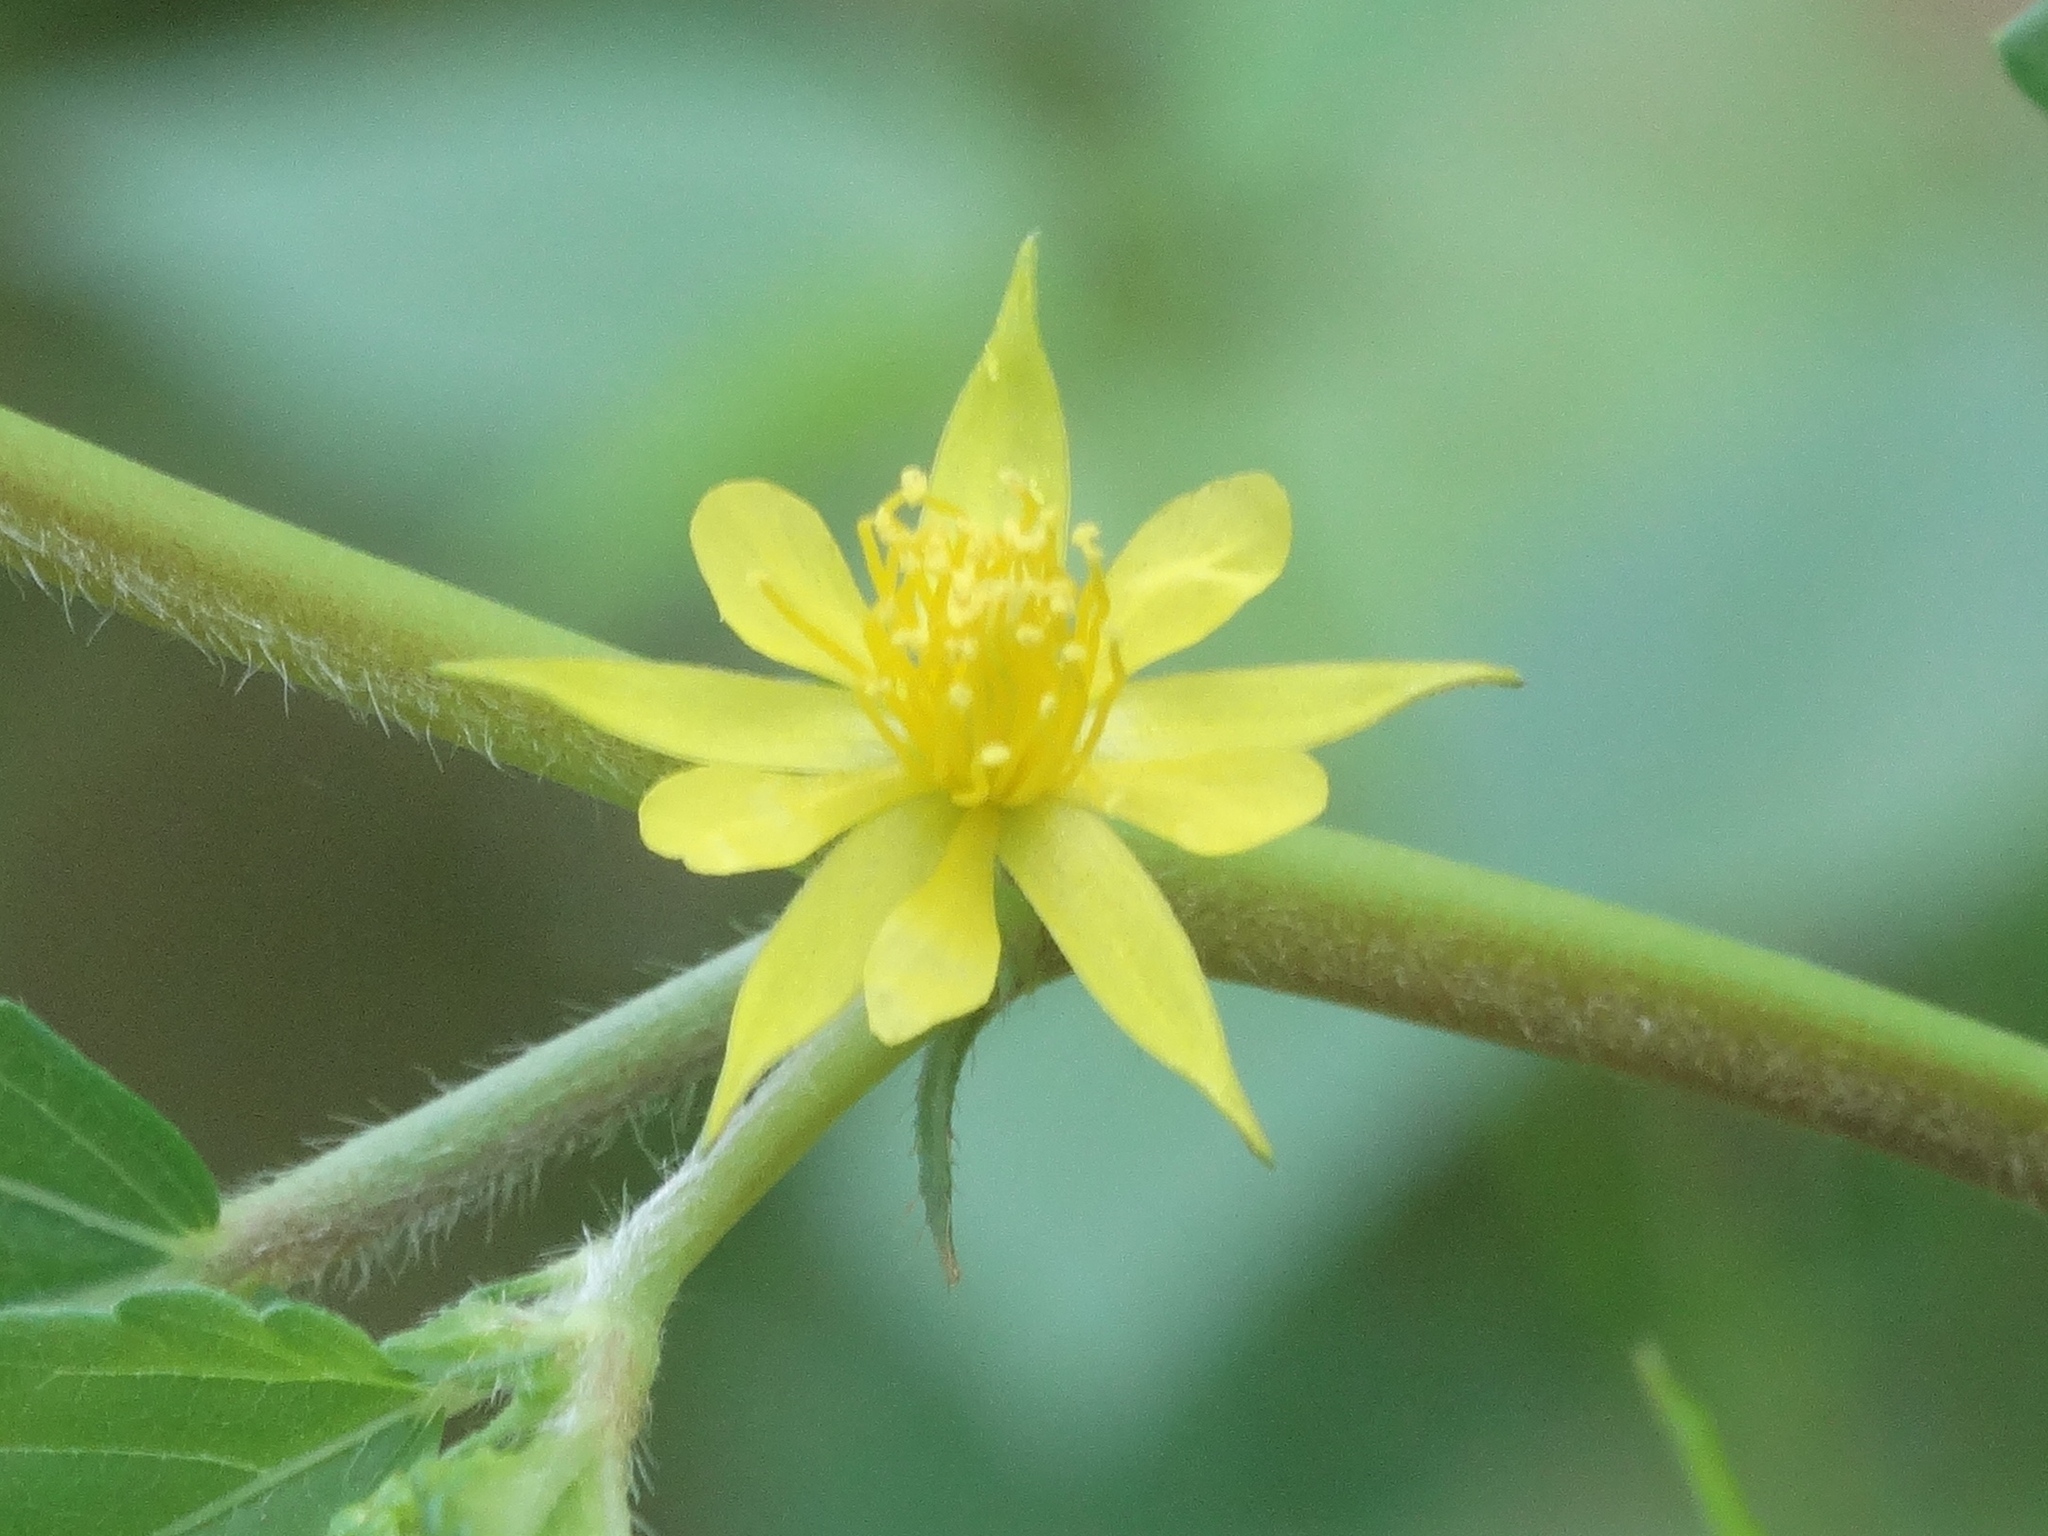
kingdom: Plantae
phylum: Tracheophyta
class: Magnoliopsida
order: Malvales
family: Malvaceae
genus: Corchorus
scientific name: Corchorus aestuans
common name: Jute
